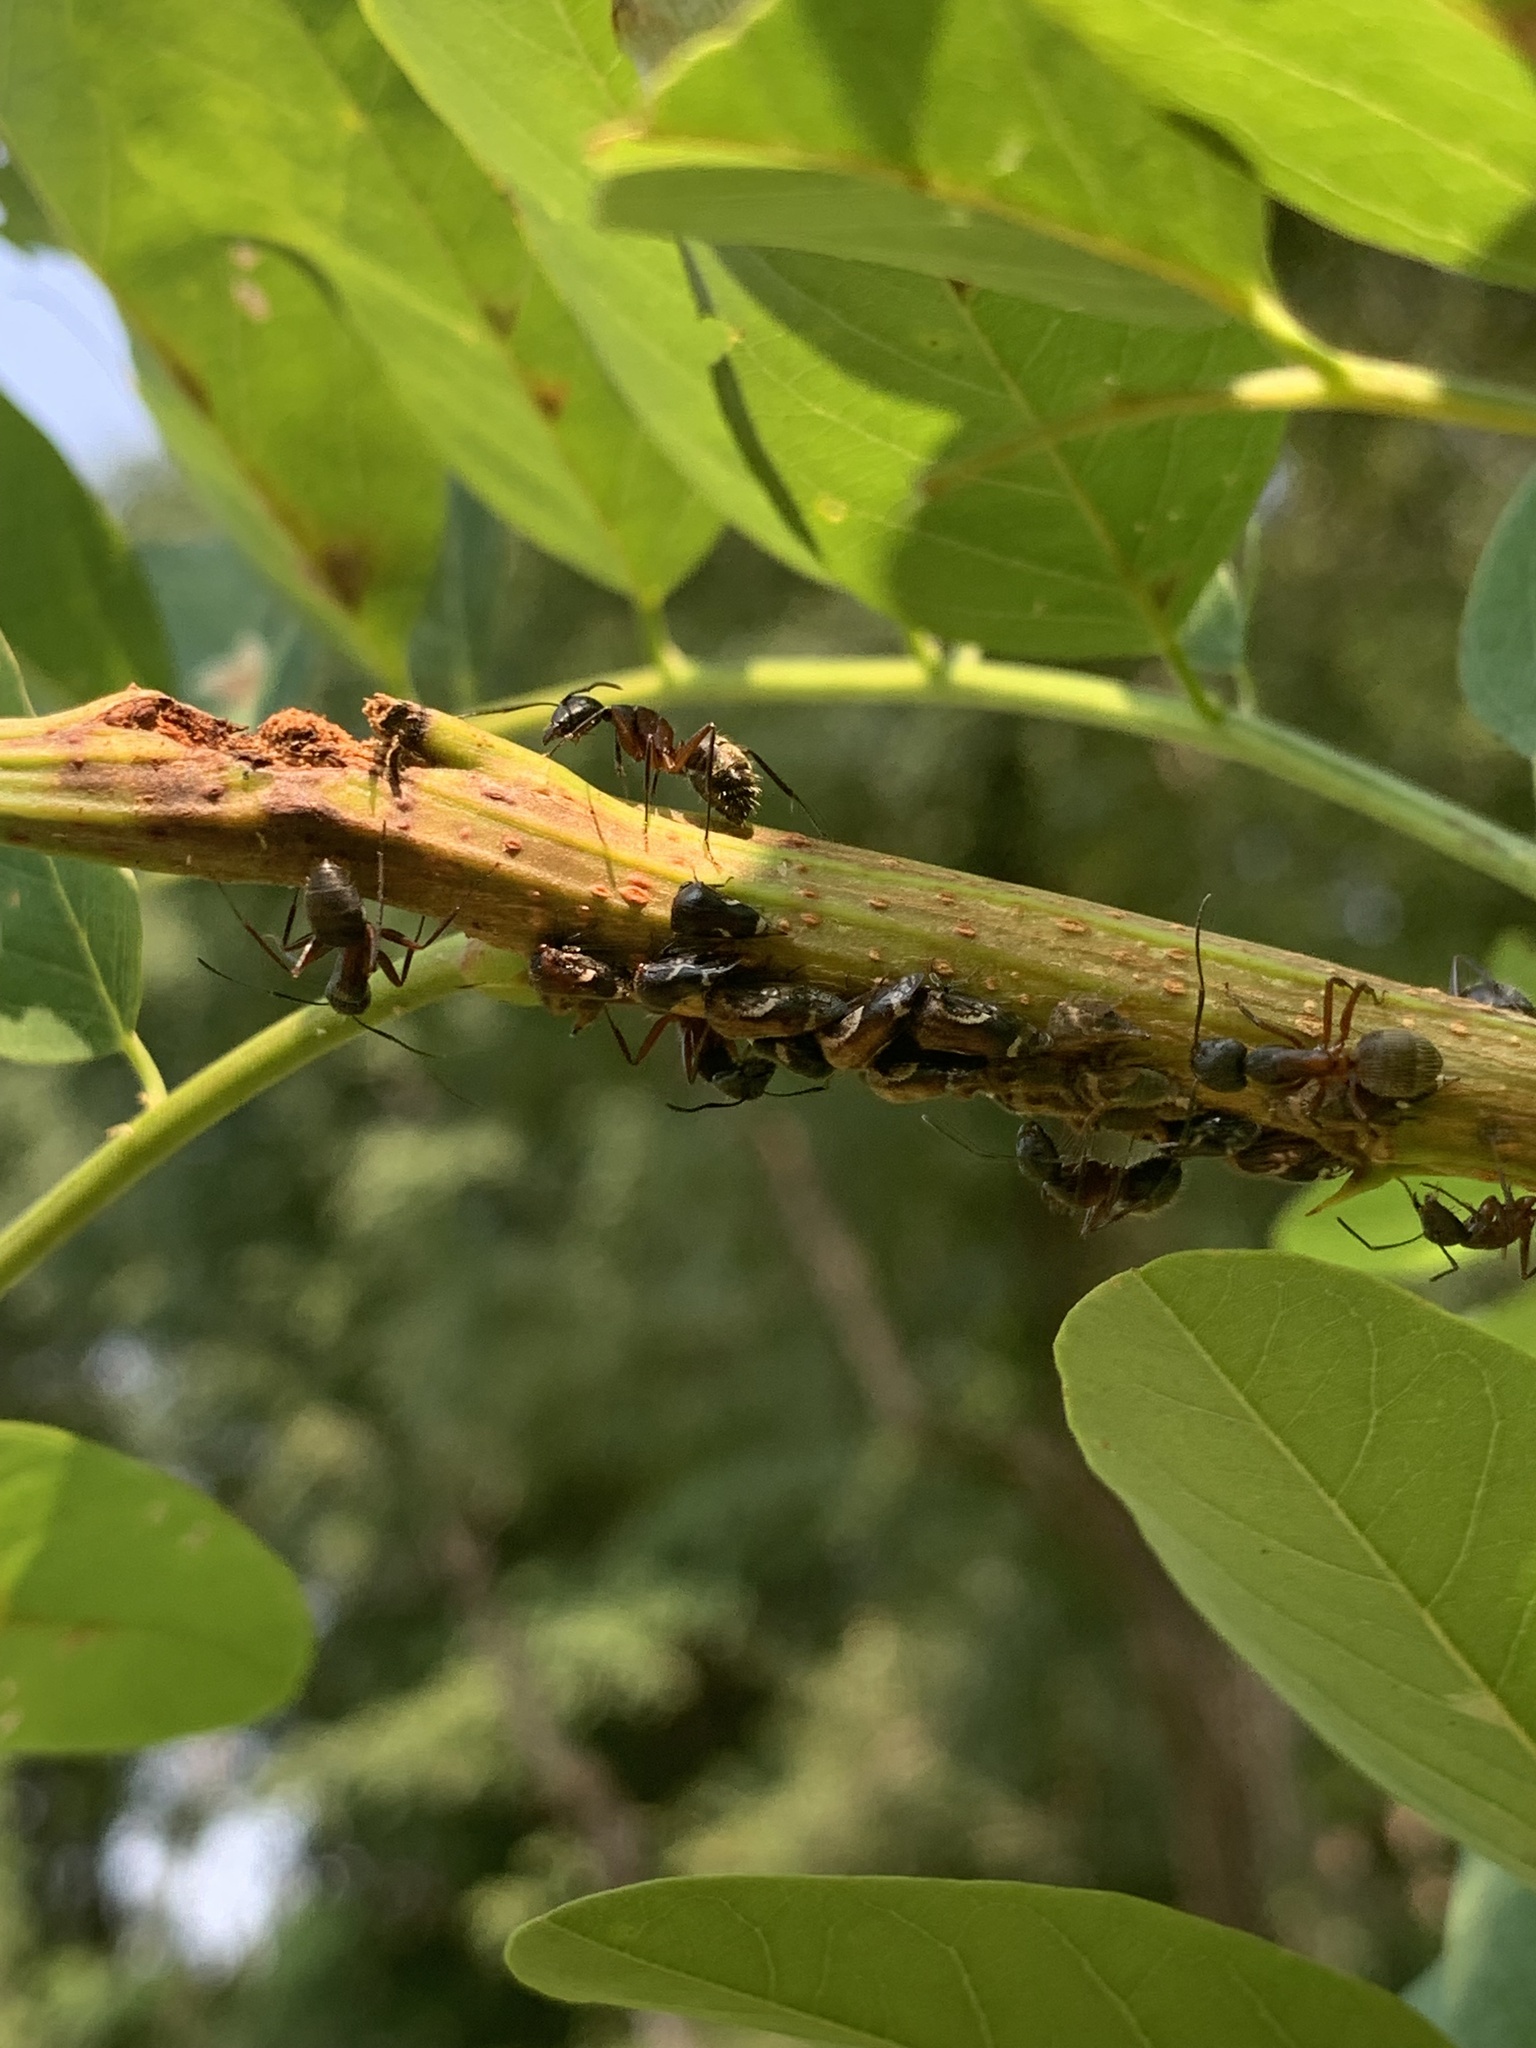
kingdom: Animalia
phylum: Arthropoda
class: Insecta
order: Hymenoptera
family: Formicidae
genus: Camponotus
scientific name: Camponotus chromaiodes
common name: Red carpenter ant
